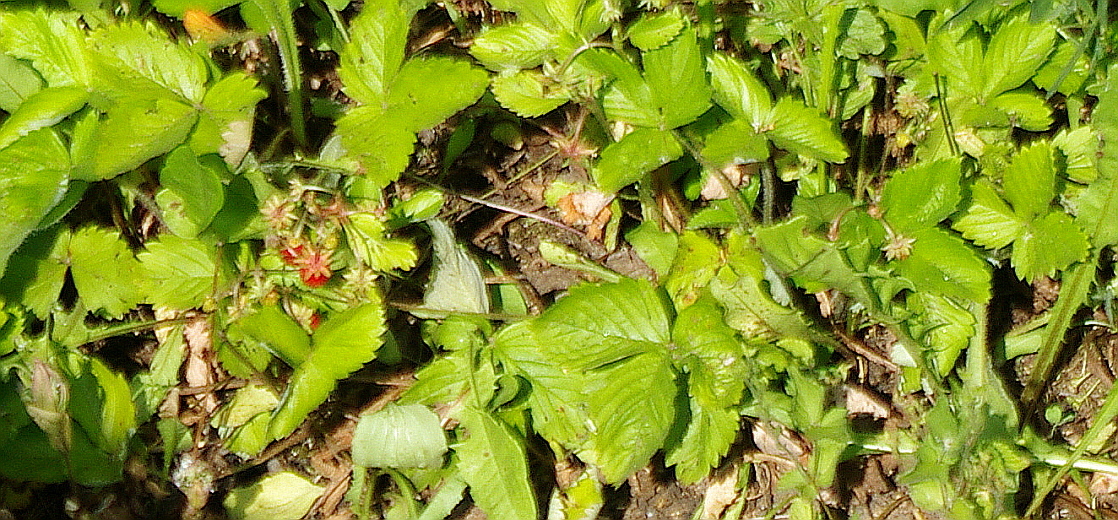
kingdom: Plantae
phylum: Tracheophyta
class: Magnoliopsida
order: Rosales
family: Rosaceae
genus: Fragaria
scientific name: Fragaria vesca
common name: Wild strawberry
